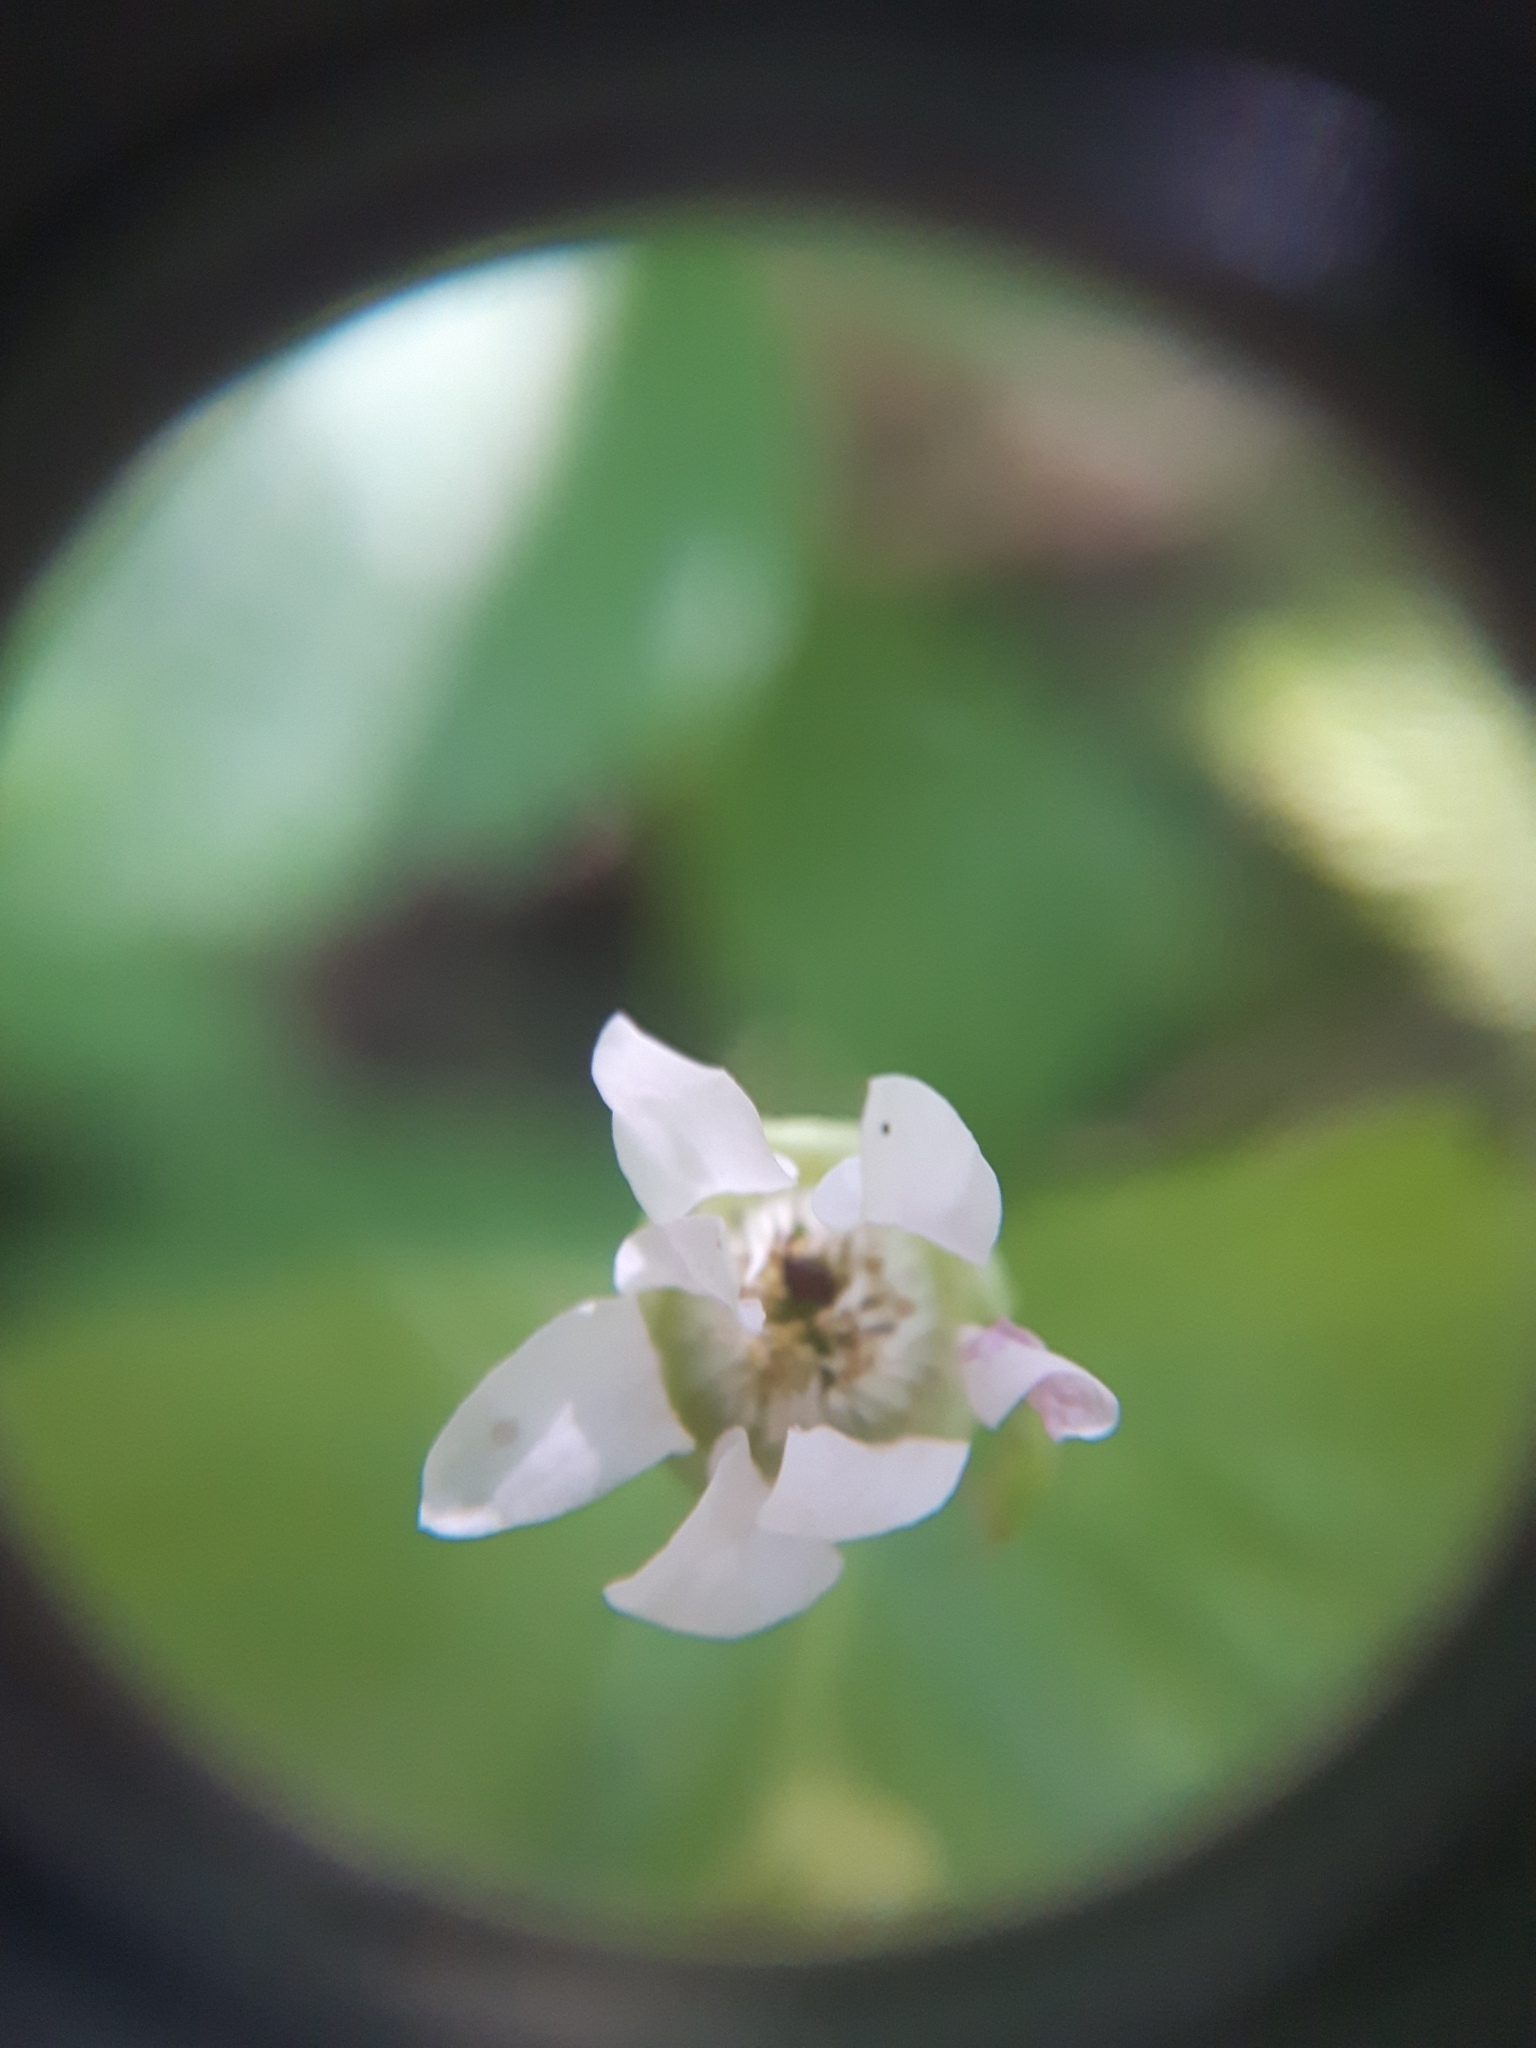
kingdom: Plantae
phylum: Tracheophyta
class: Magnoliopsida
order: Rosales
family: Rosaceae
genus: Rubus
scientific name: Rubus pubescens
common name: Dwarf raspberry
